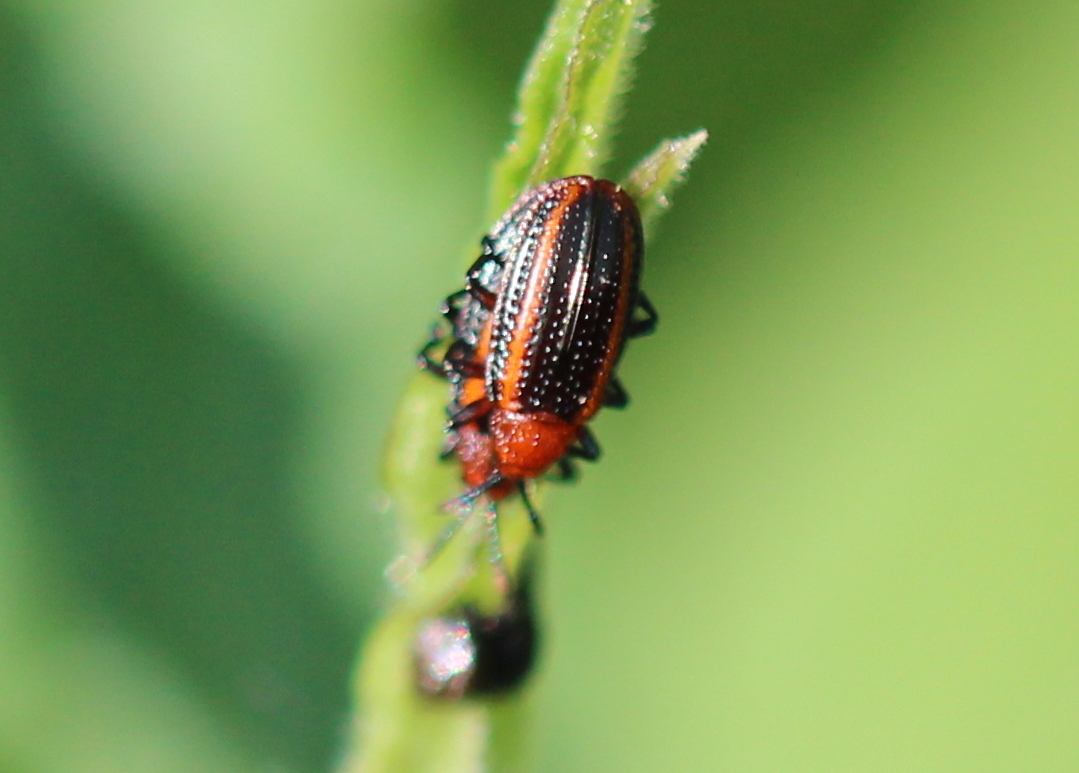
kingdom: Animalia
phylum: Arthropoda
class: Insecta
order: Coleoptera
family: Chrysomelidae
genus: Microrhopala
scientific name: Microrhopala vittata
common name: Goldenrod leaf miner beetle
